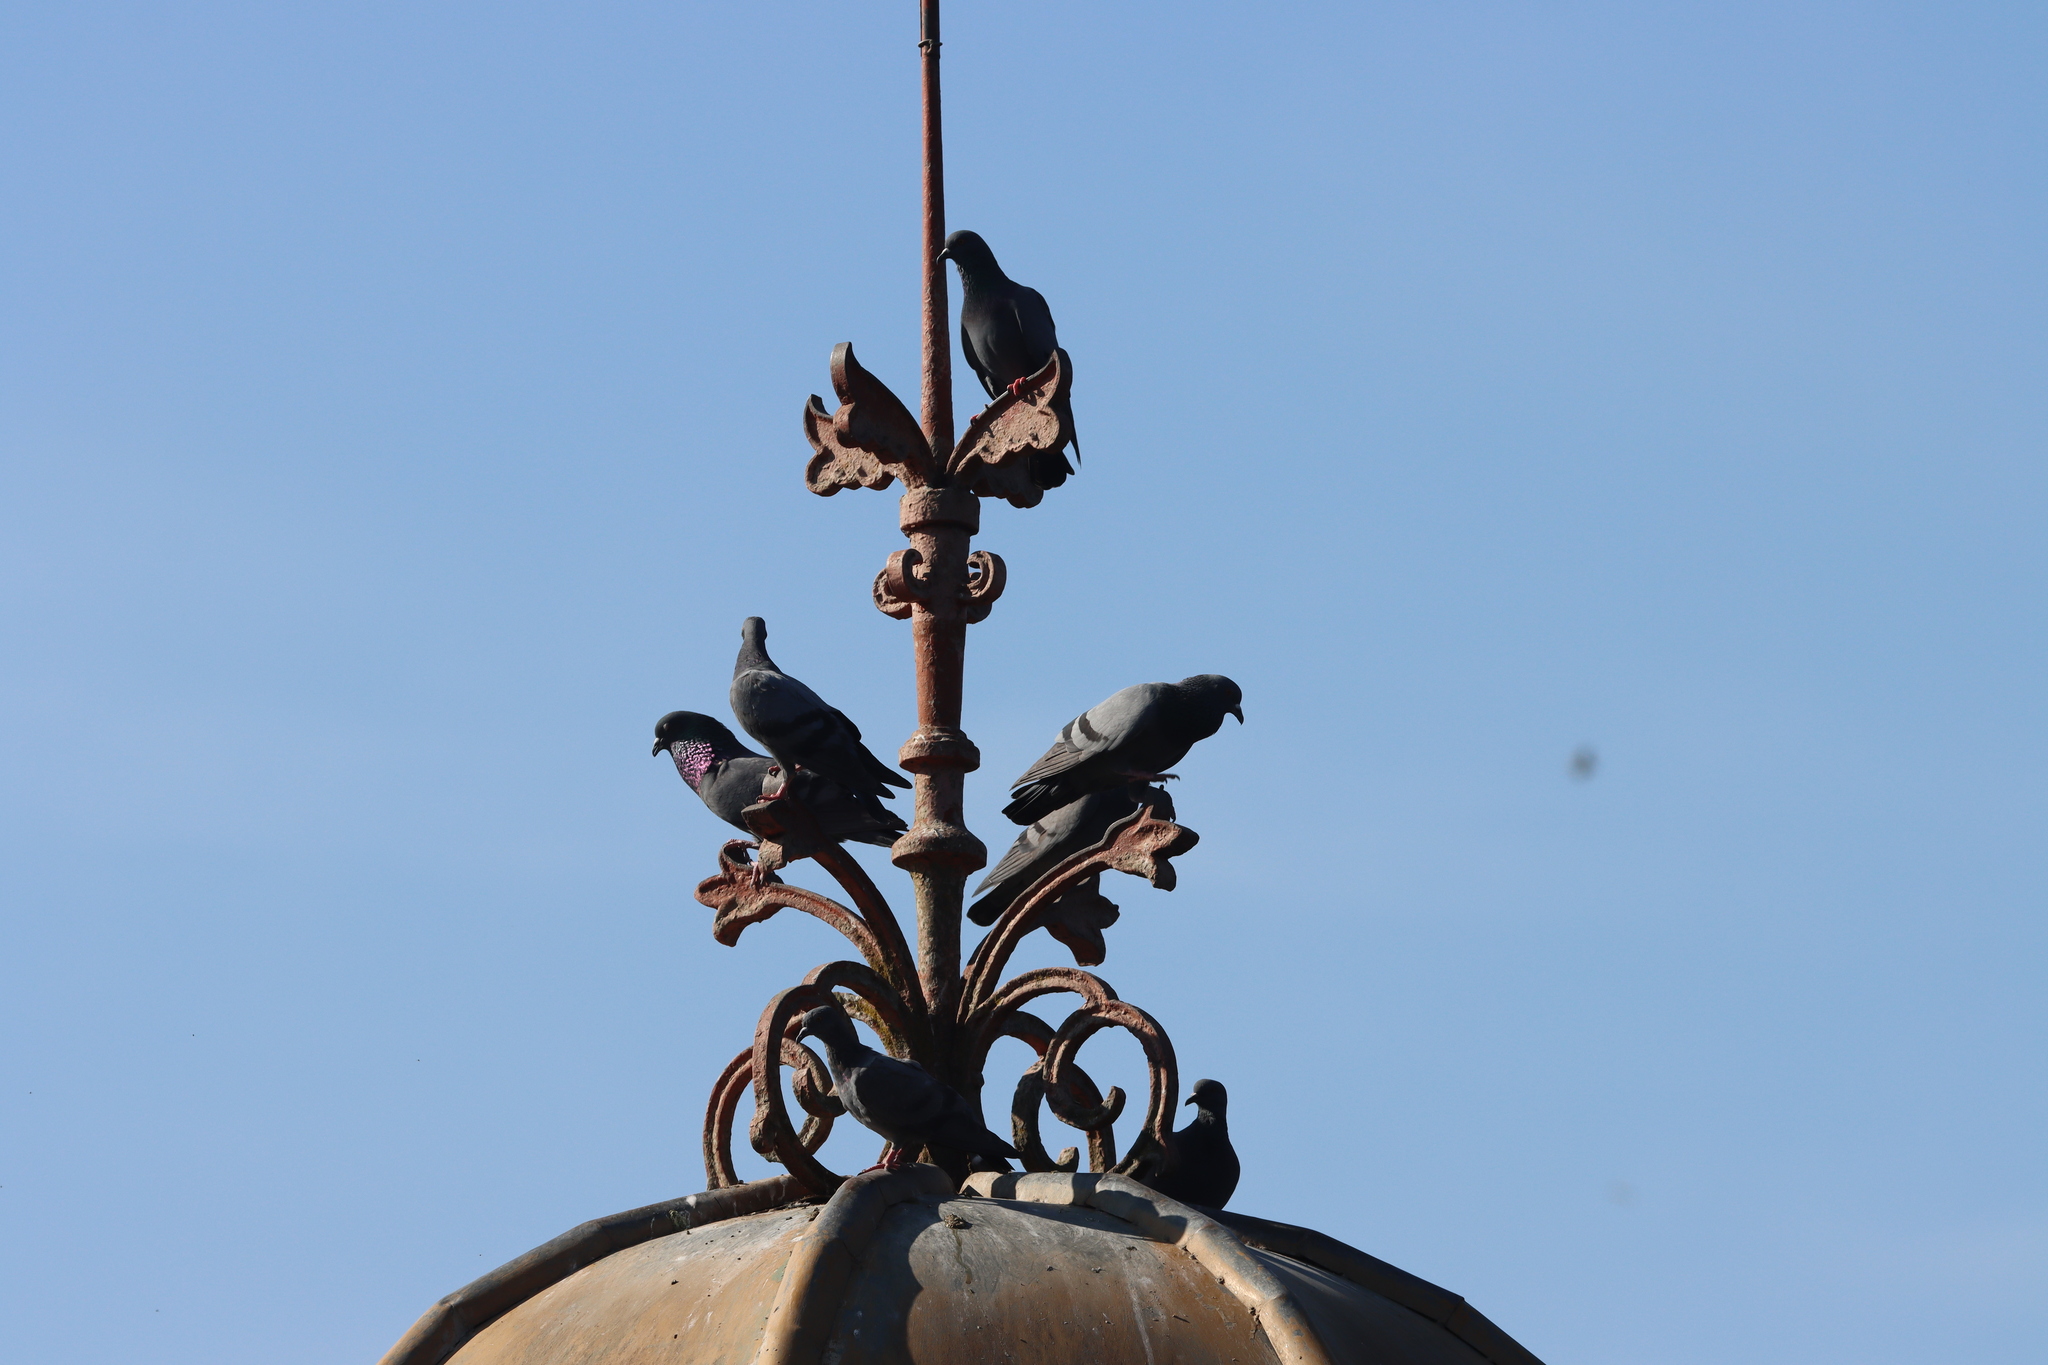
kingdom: Animalia
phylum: Chordata
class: Aves
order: Columbiformes
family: Columbidae
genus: Columba
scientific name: Columba livia
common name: Rock pigeon
